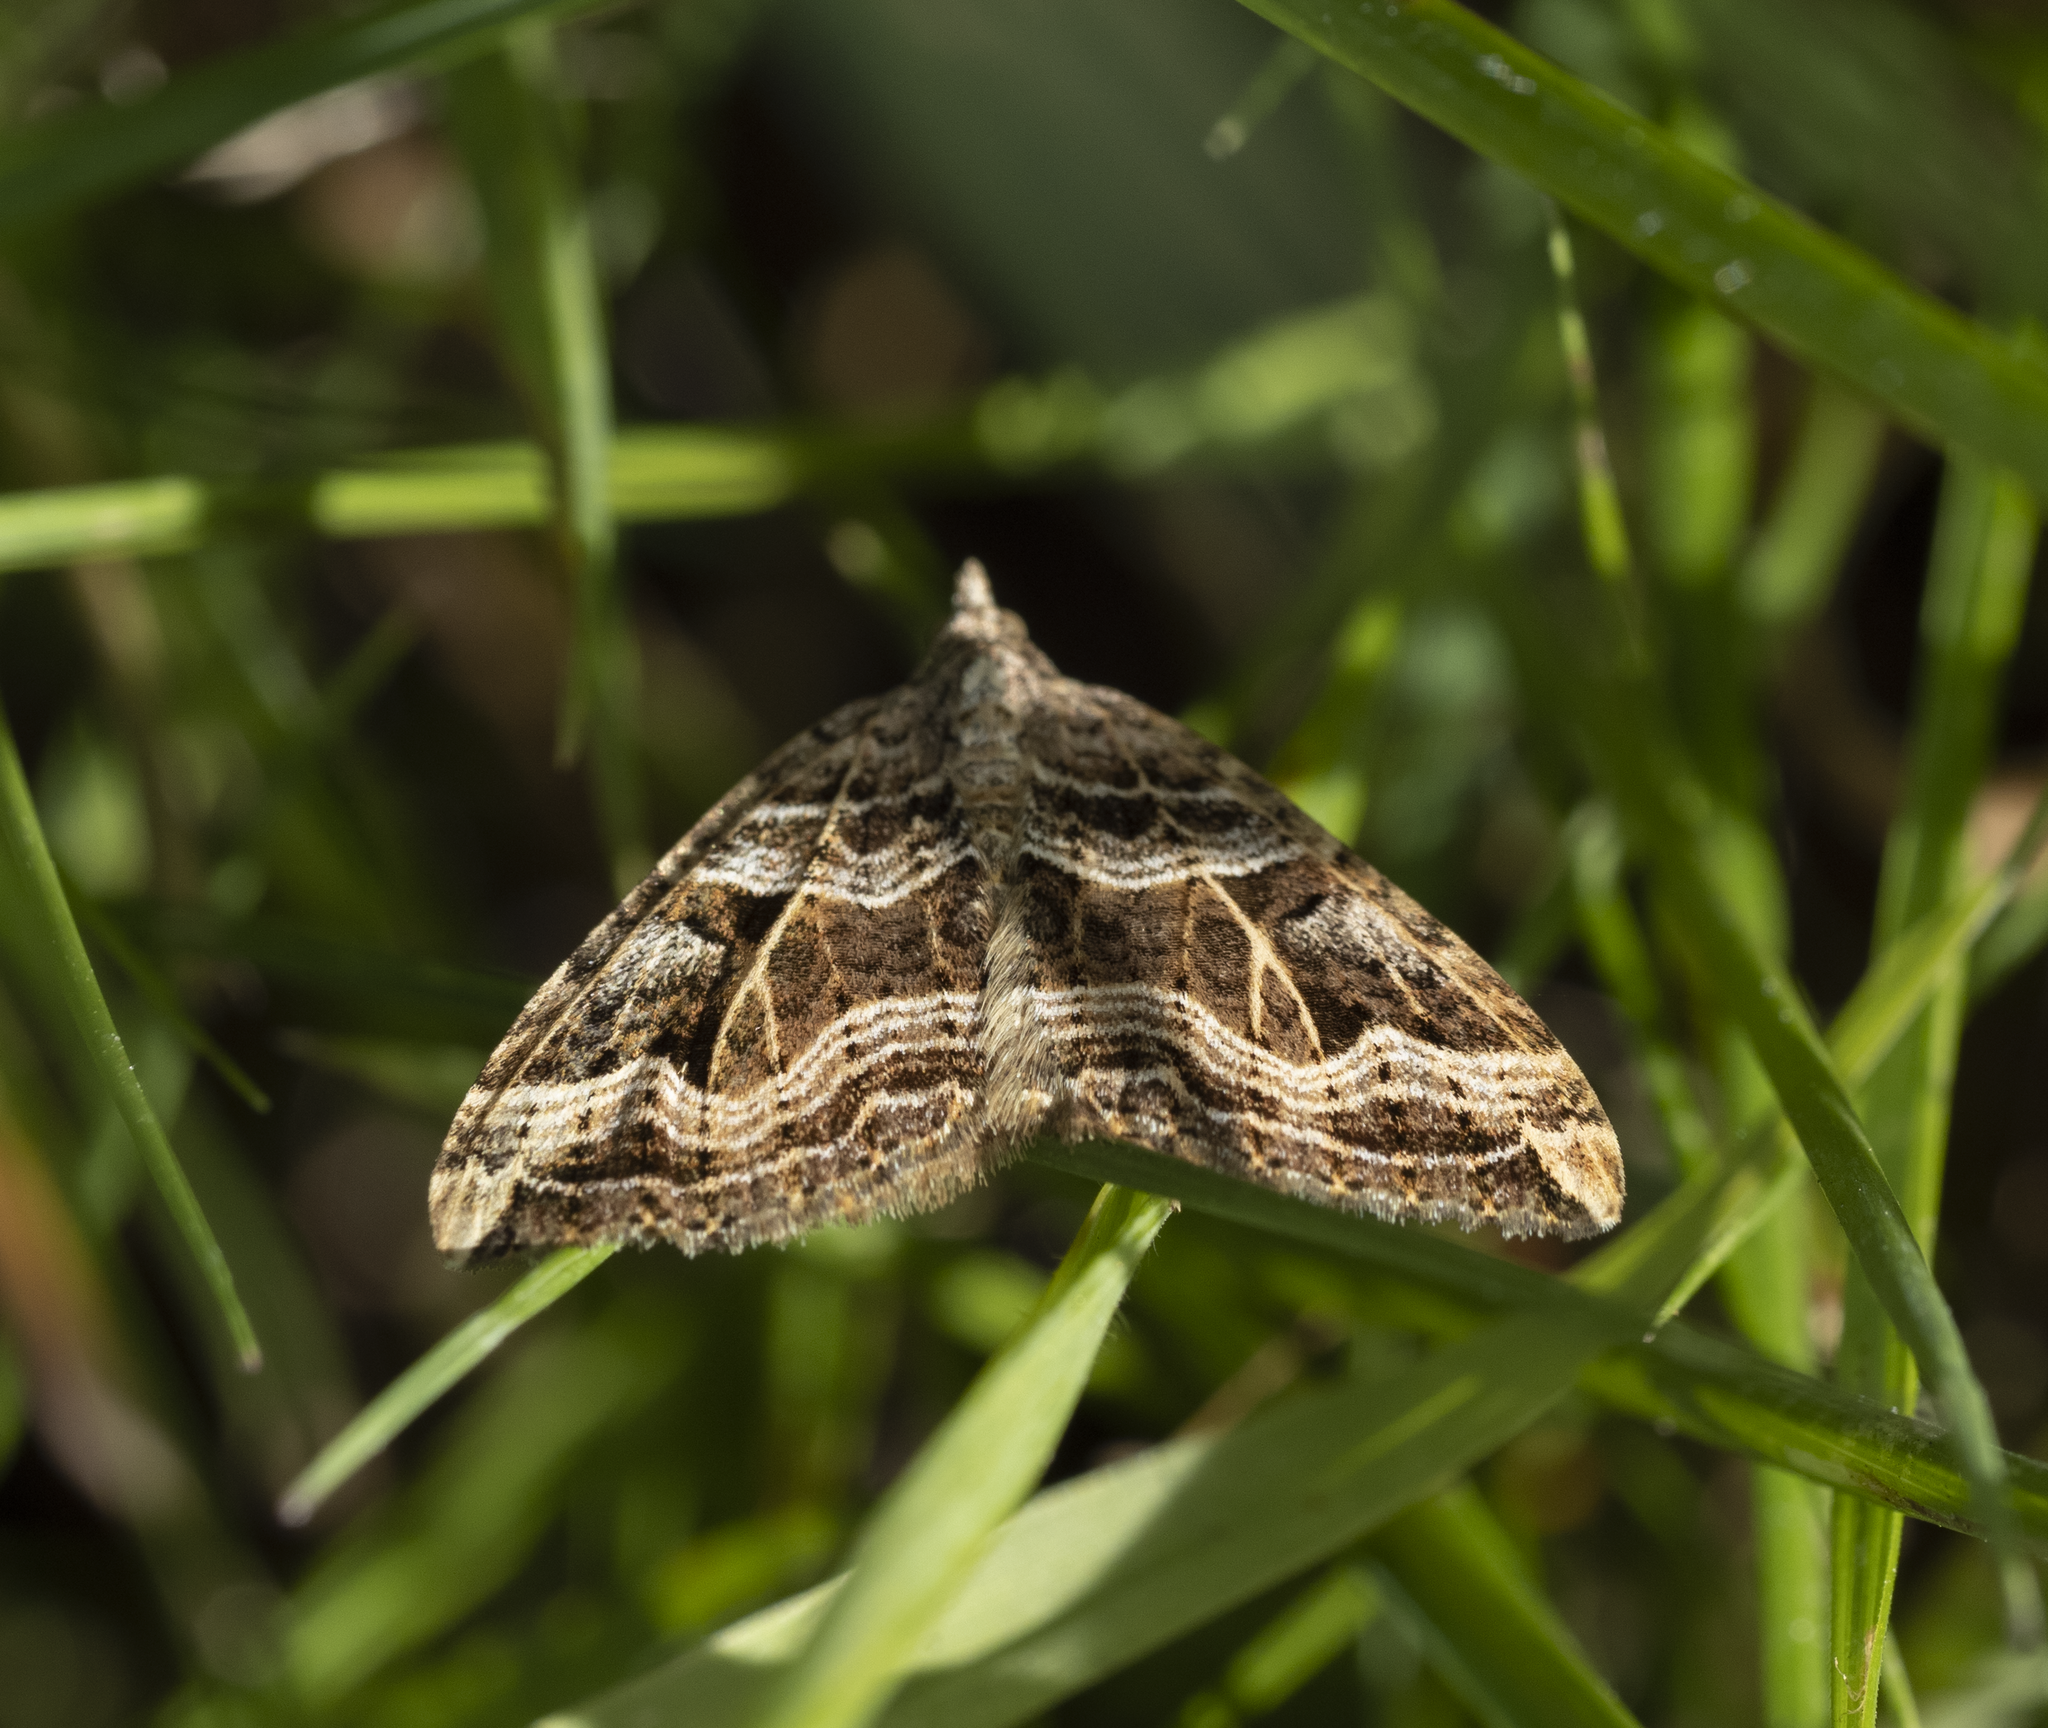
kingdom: Animalia
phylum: Arthropoda
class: Insecta
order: Lepidoptera
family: Geometridae
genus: Xanthorhoe
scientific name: Xanthorhoe semifissata
